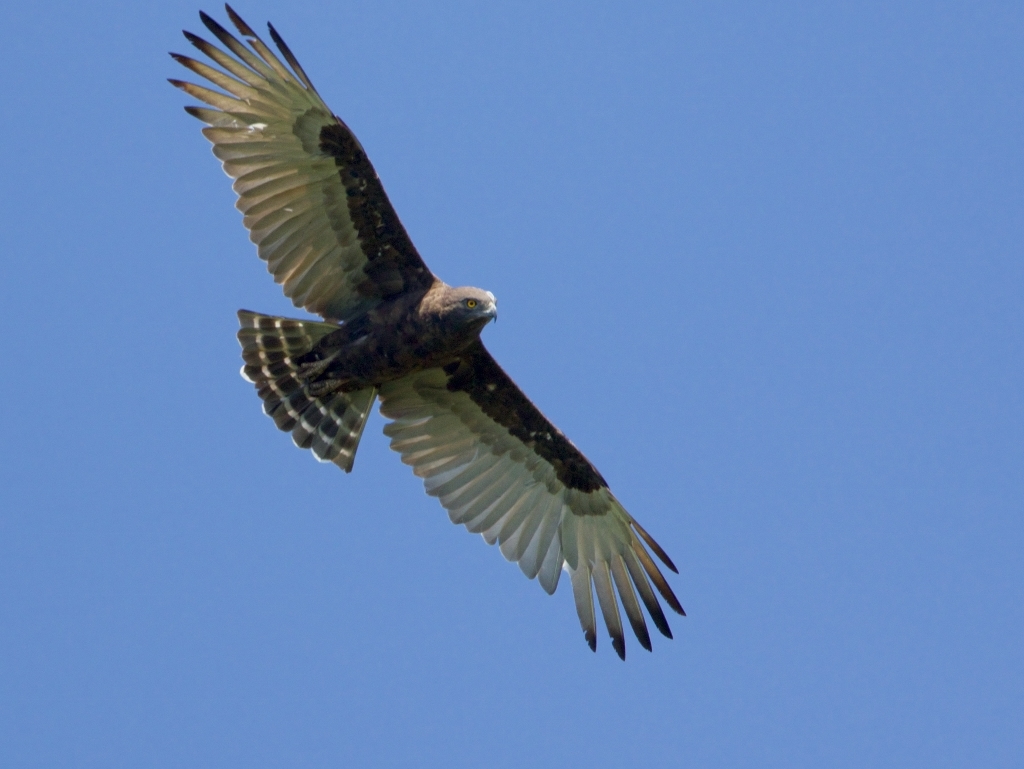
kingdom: Animalia
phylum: Chordata
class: Aves
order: Accipitriformes
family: Accipitridae
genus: Circaetus
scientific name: Circaetus cinereus
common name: Brown snake eagle
